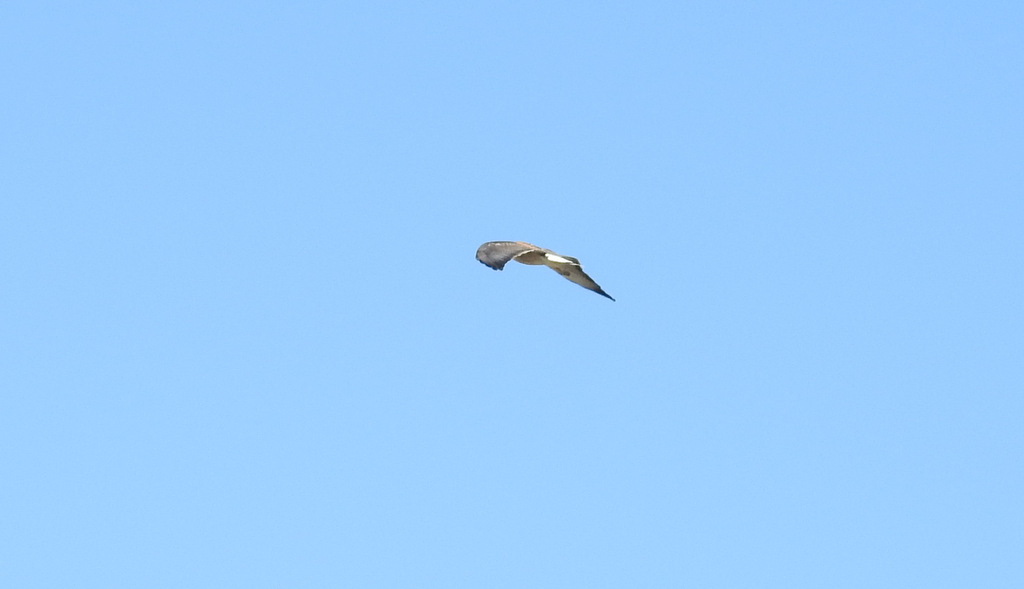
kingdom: Animalia
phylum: Chordata
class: Aves
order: Accipitriformes
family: Accipitridae
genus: Buteo
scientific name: Buteo polyosoma
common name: Variable hawk
